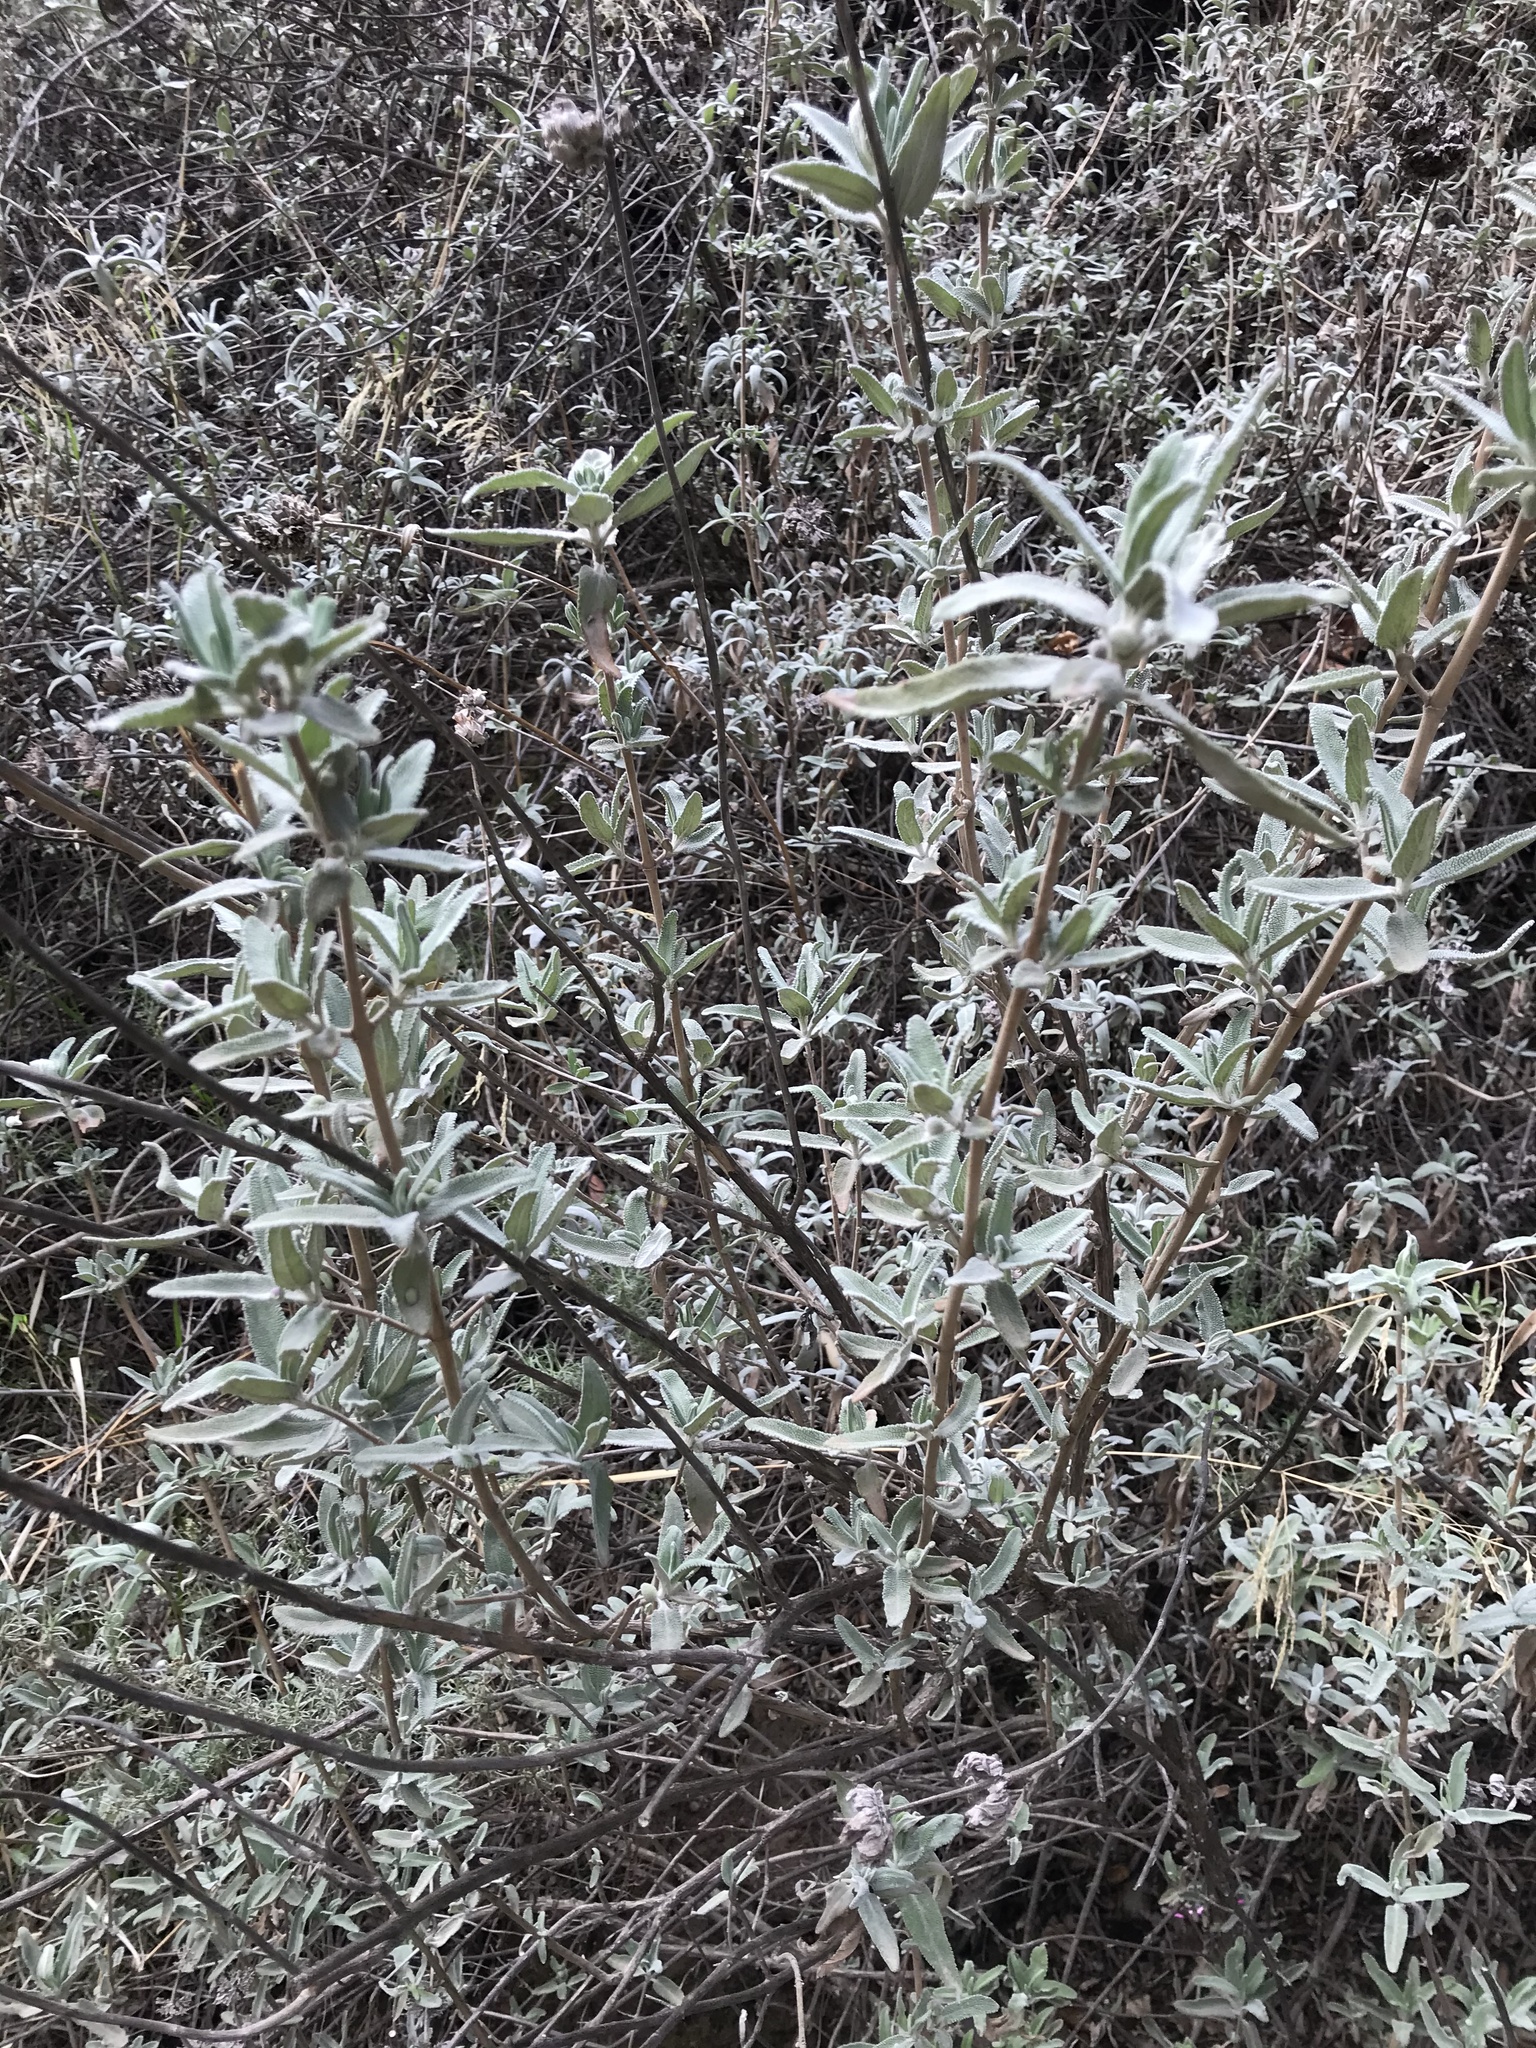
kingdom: Plantae
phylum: Tracheophyta
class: Magnoliopsida
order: Lamiales
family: Lamiaceae
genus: Salvia
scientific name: Salvia leucophylla
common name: Purple sage
